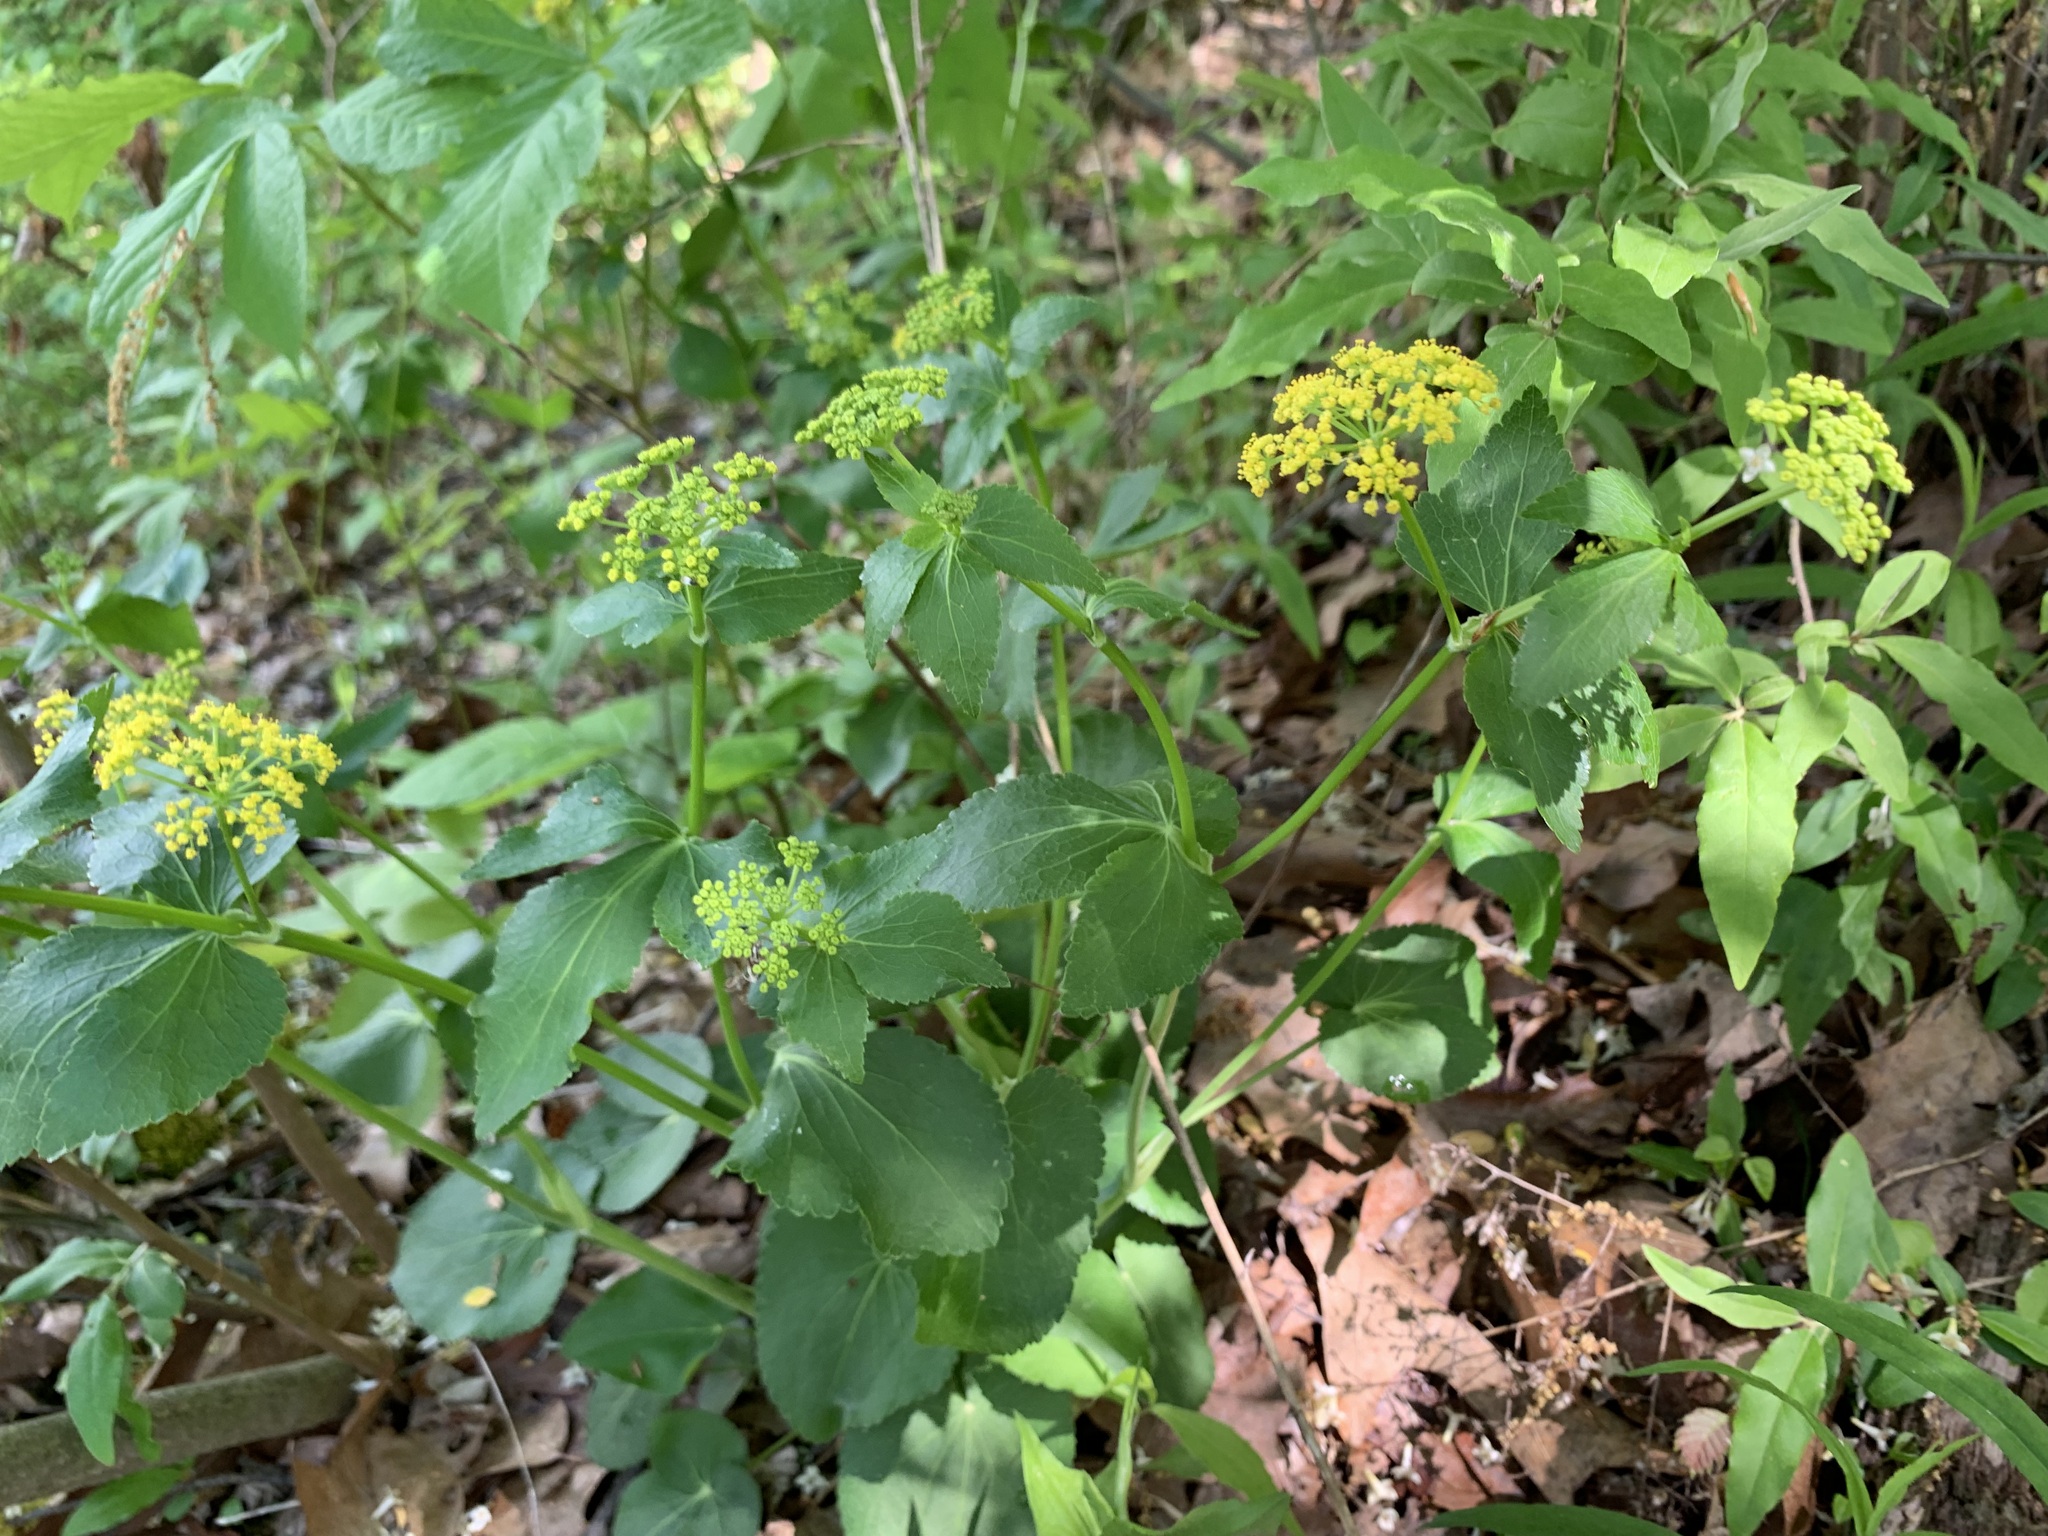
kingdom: Plantae
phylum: Tracheophyta
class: Magnoliopsida
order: Apiales
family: Apiaceae
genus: Zizia
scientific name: Zizia aptera
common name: Heart-leaved alexanders
